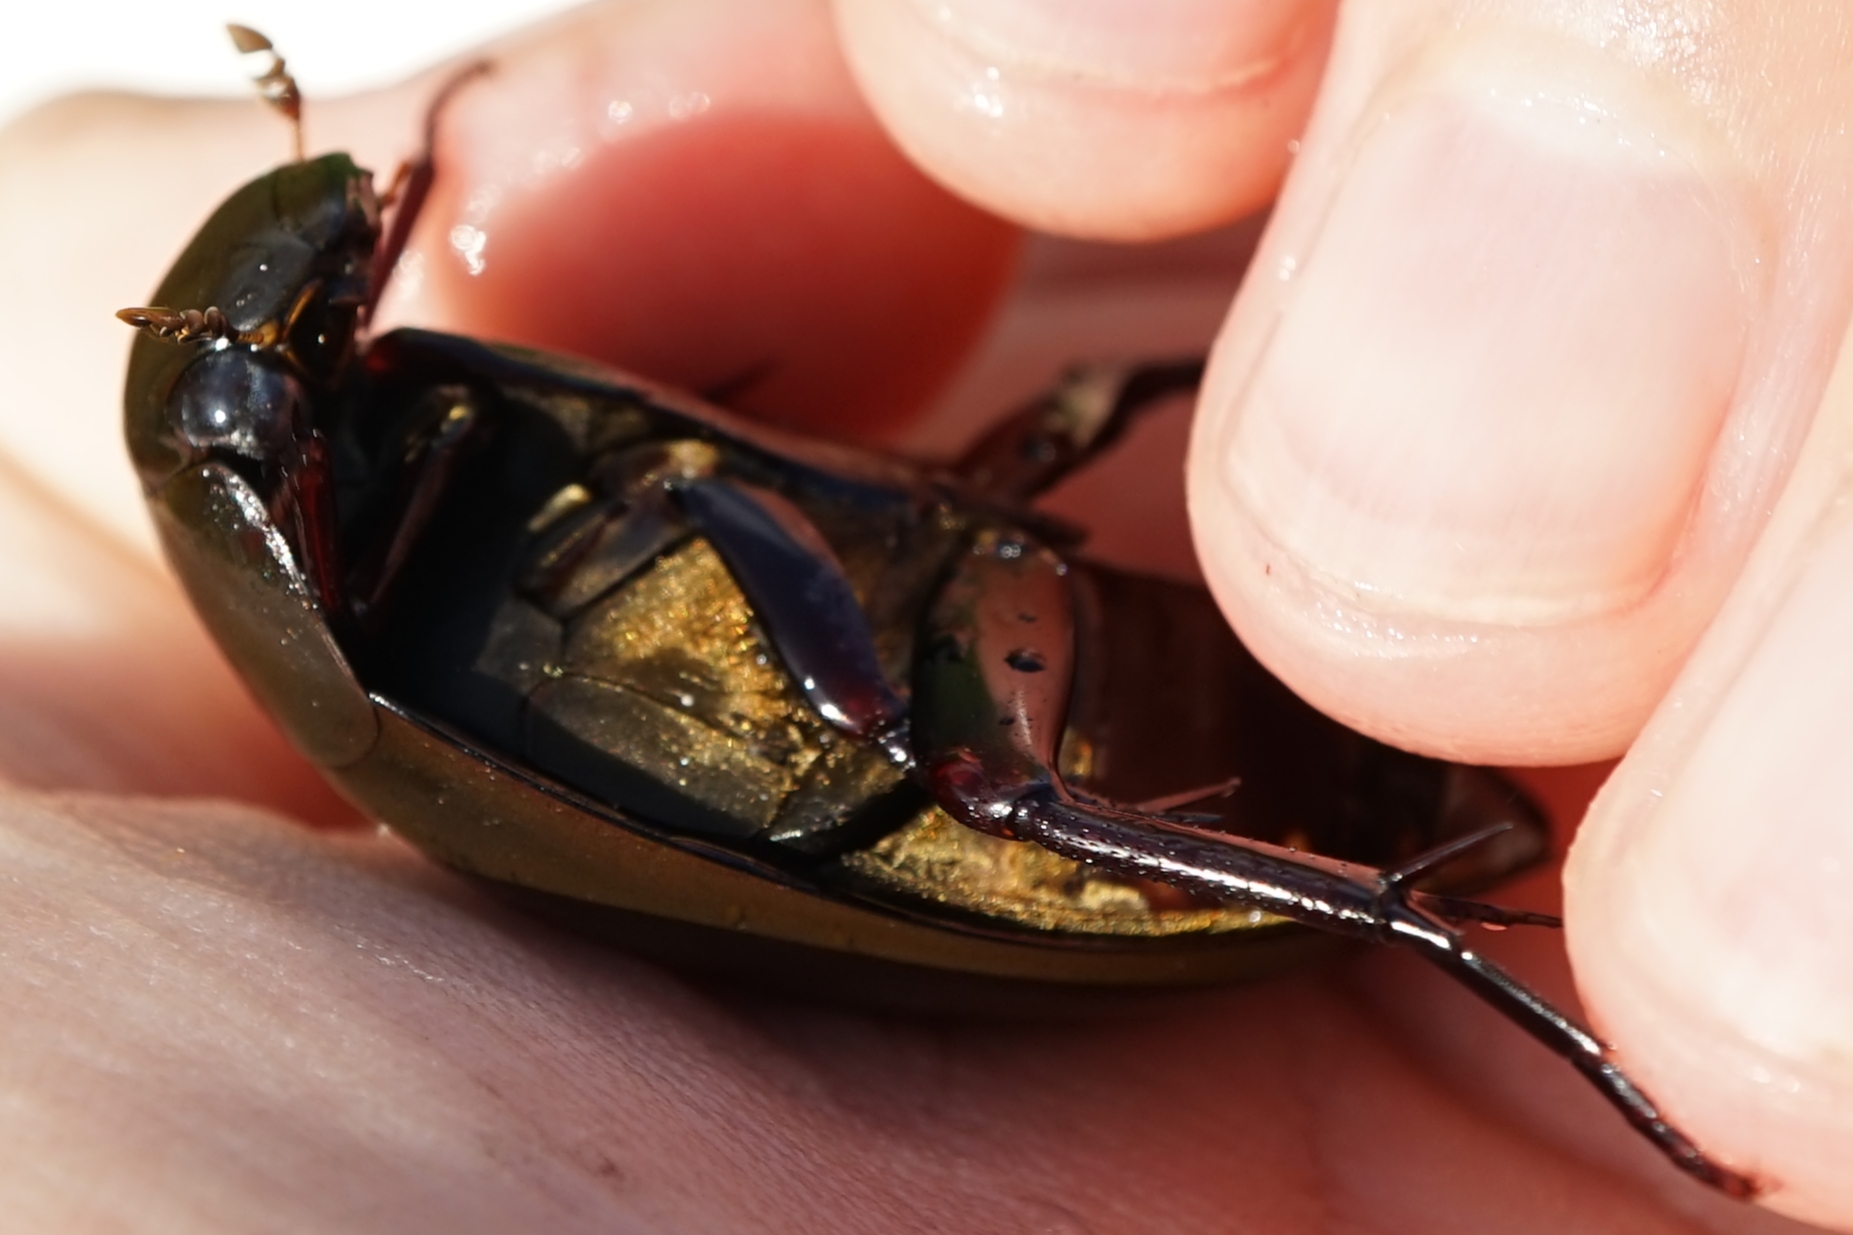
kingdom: Animalia
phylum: Arthropoda
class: Insecta
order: Coleoptera
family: Hydrophilidae
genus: Hydrophilus
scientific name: Hydrophilus acuminatus
